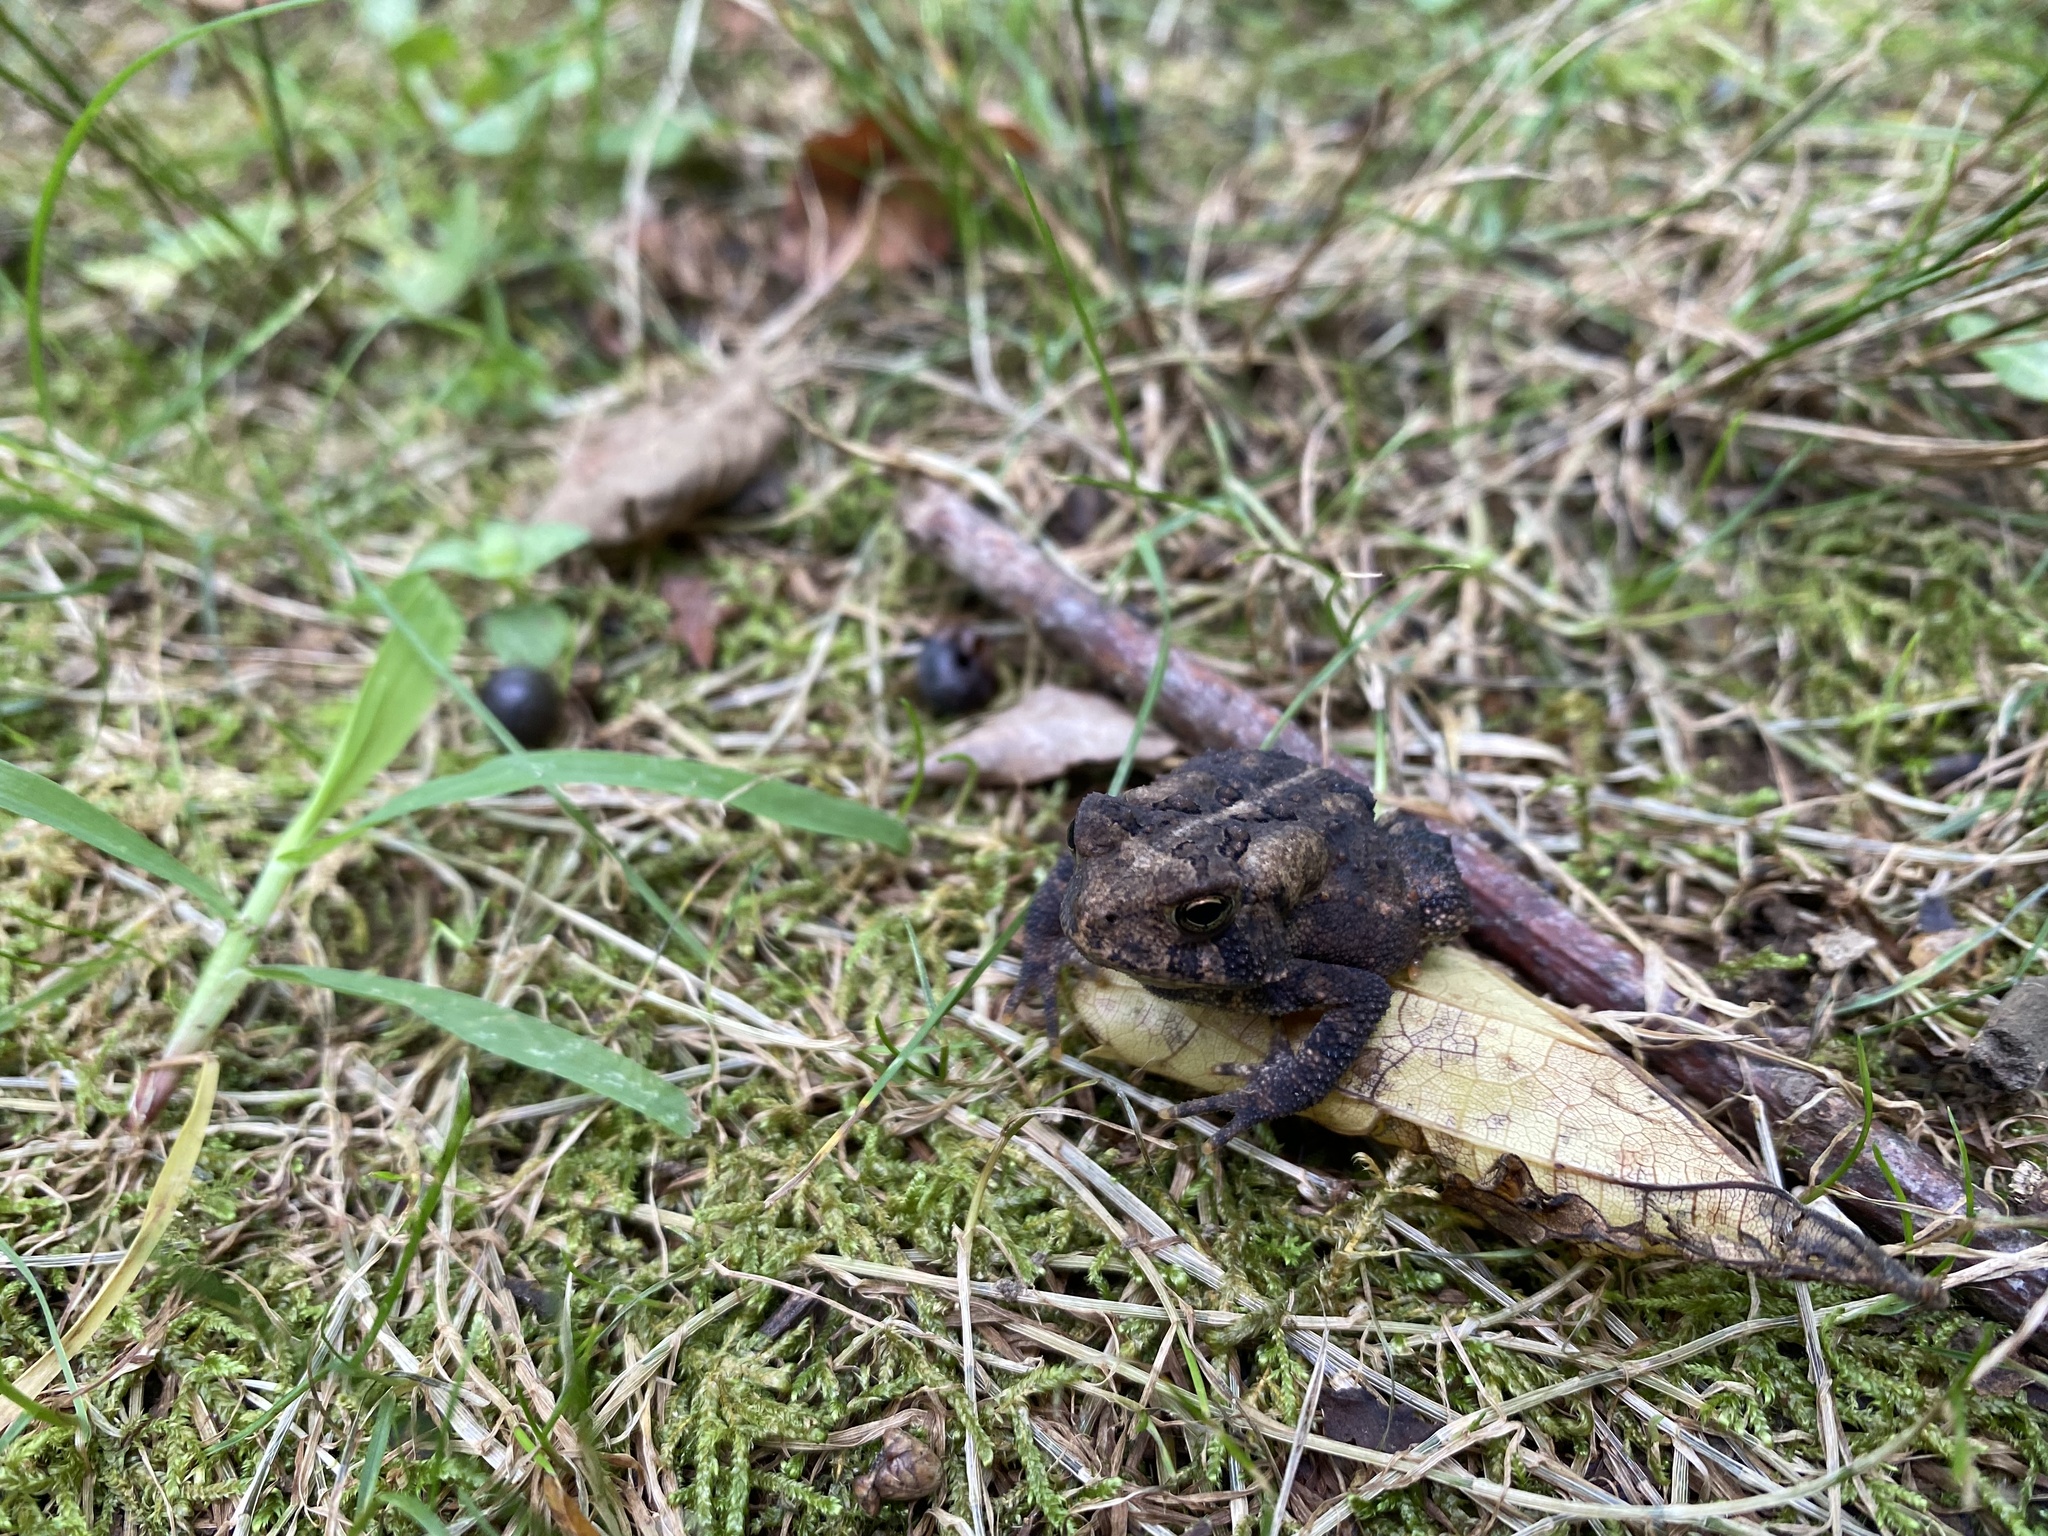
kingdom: Animalia
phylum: Chordata
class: Amphibia
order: Anura
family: Bufonidae
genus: Anaxyrus
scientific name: Anaxyrus americanus
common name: American toad
